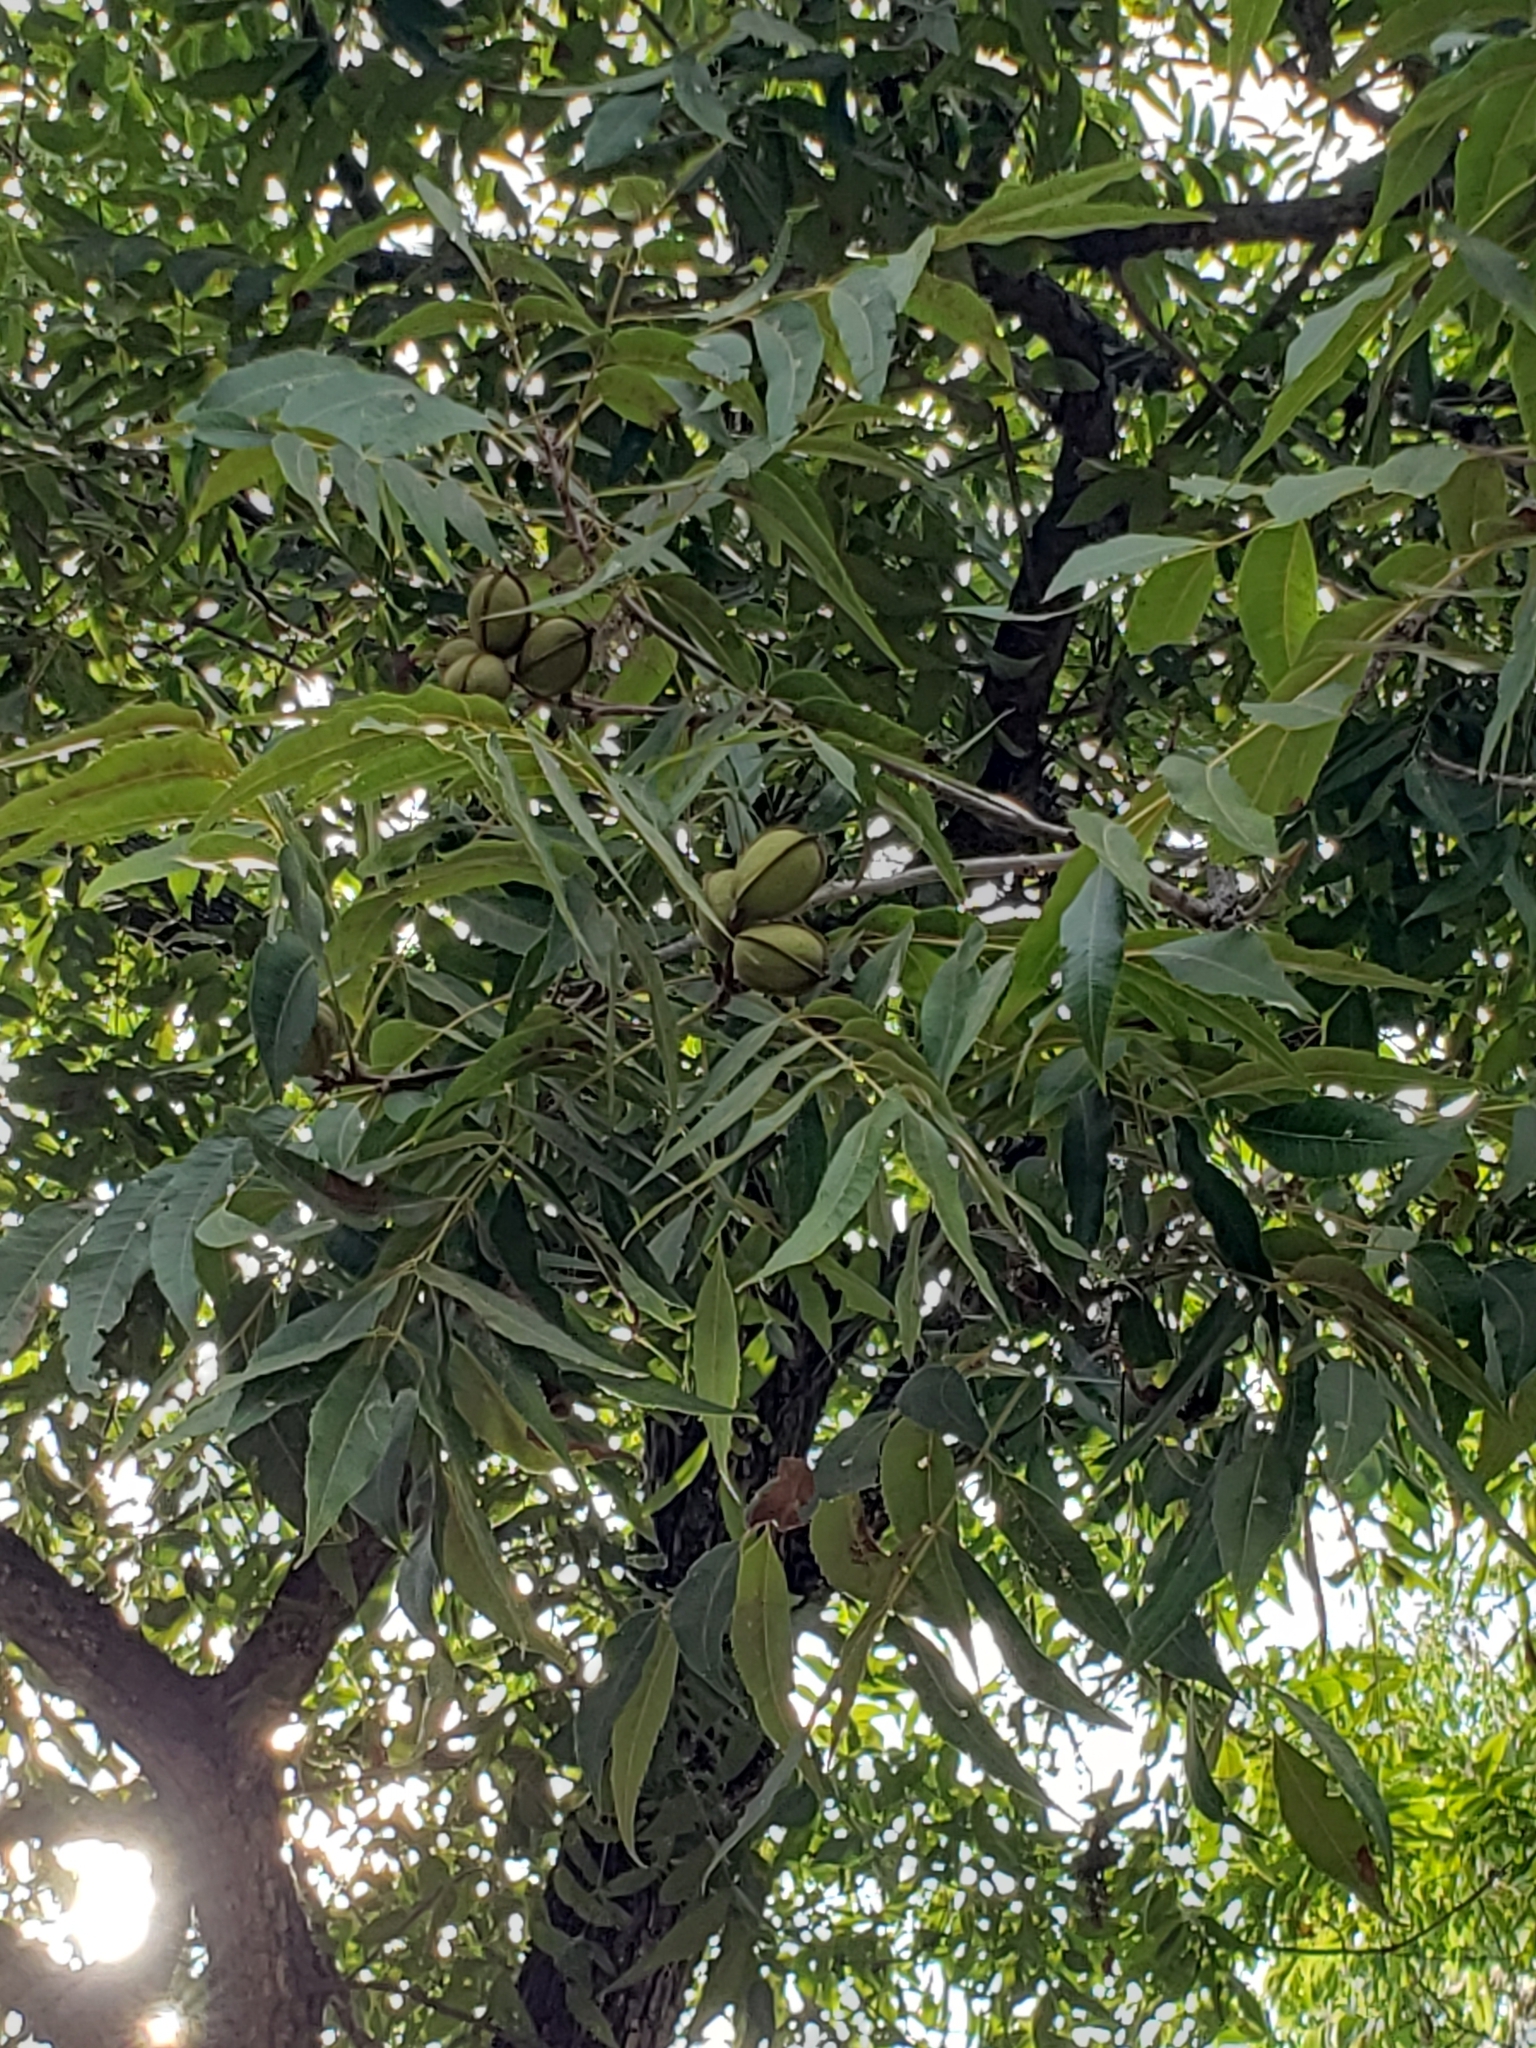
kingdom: Plantae
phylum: Tracheophyta
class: Magnoliopsida
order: Fagales
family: Juglandaceae
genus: Carya
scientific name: Carya illinoinensis
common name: Pecan
